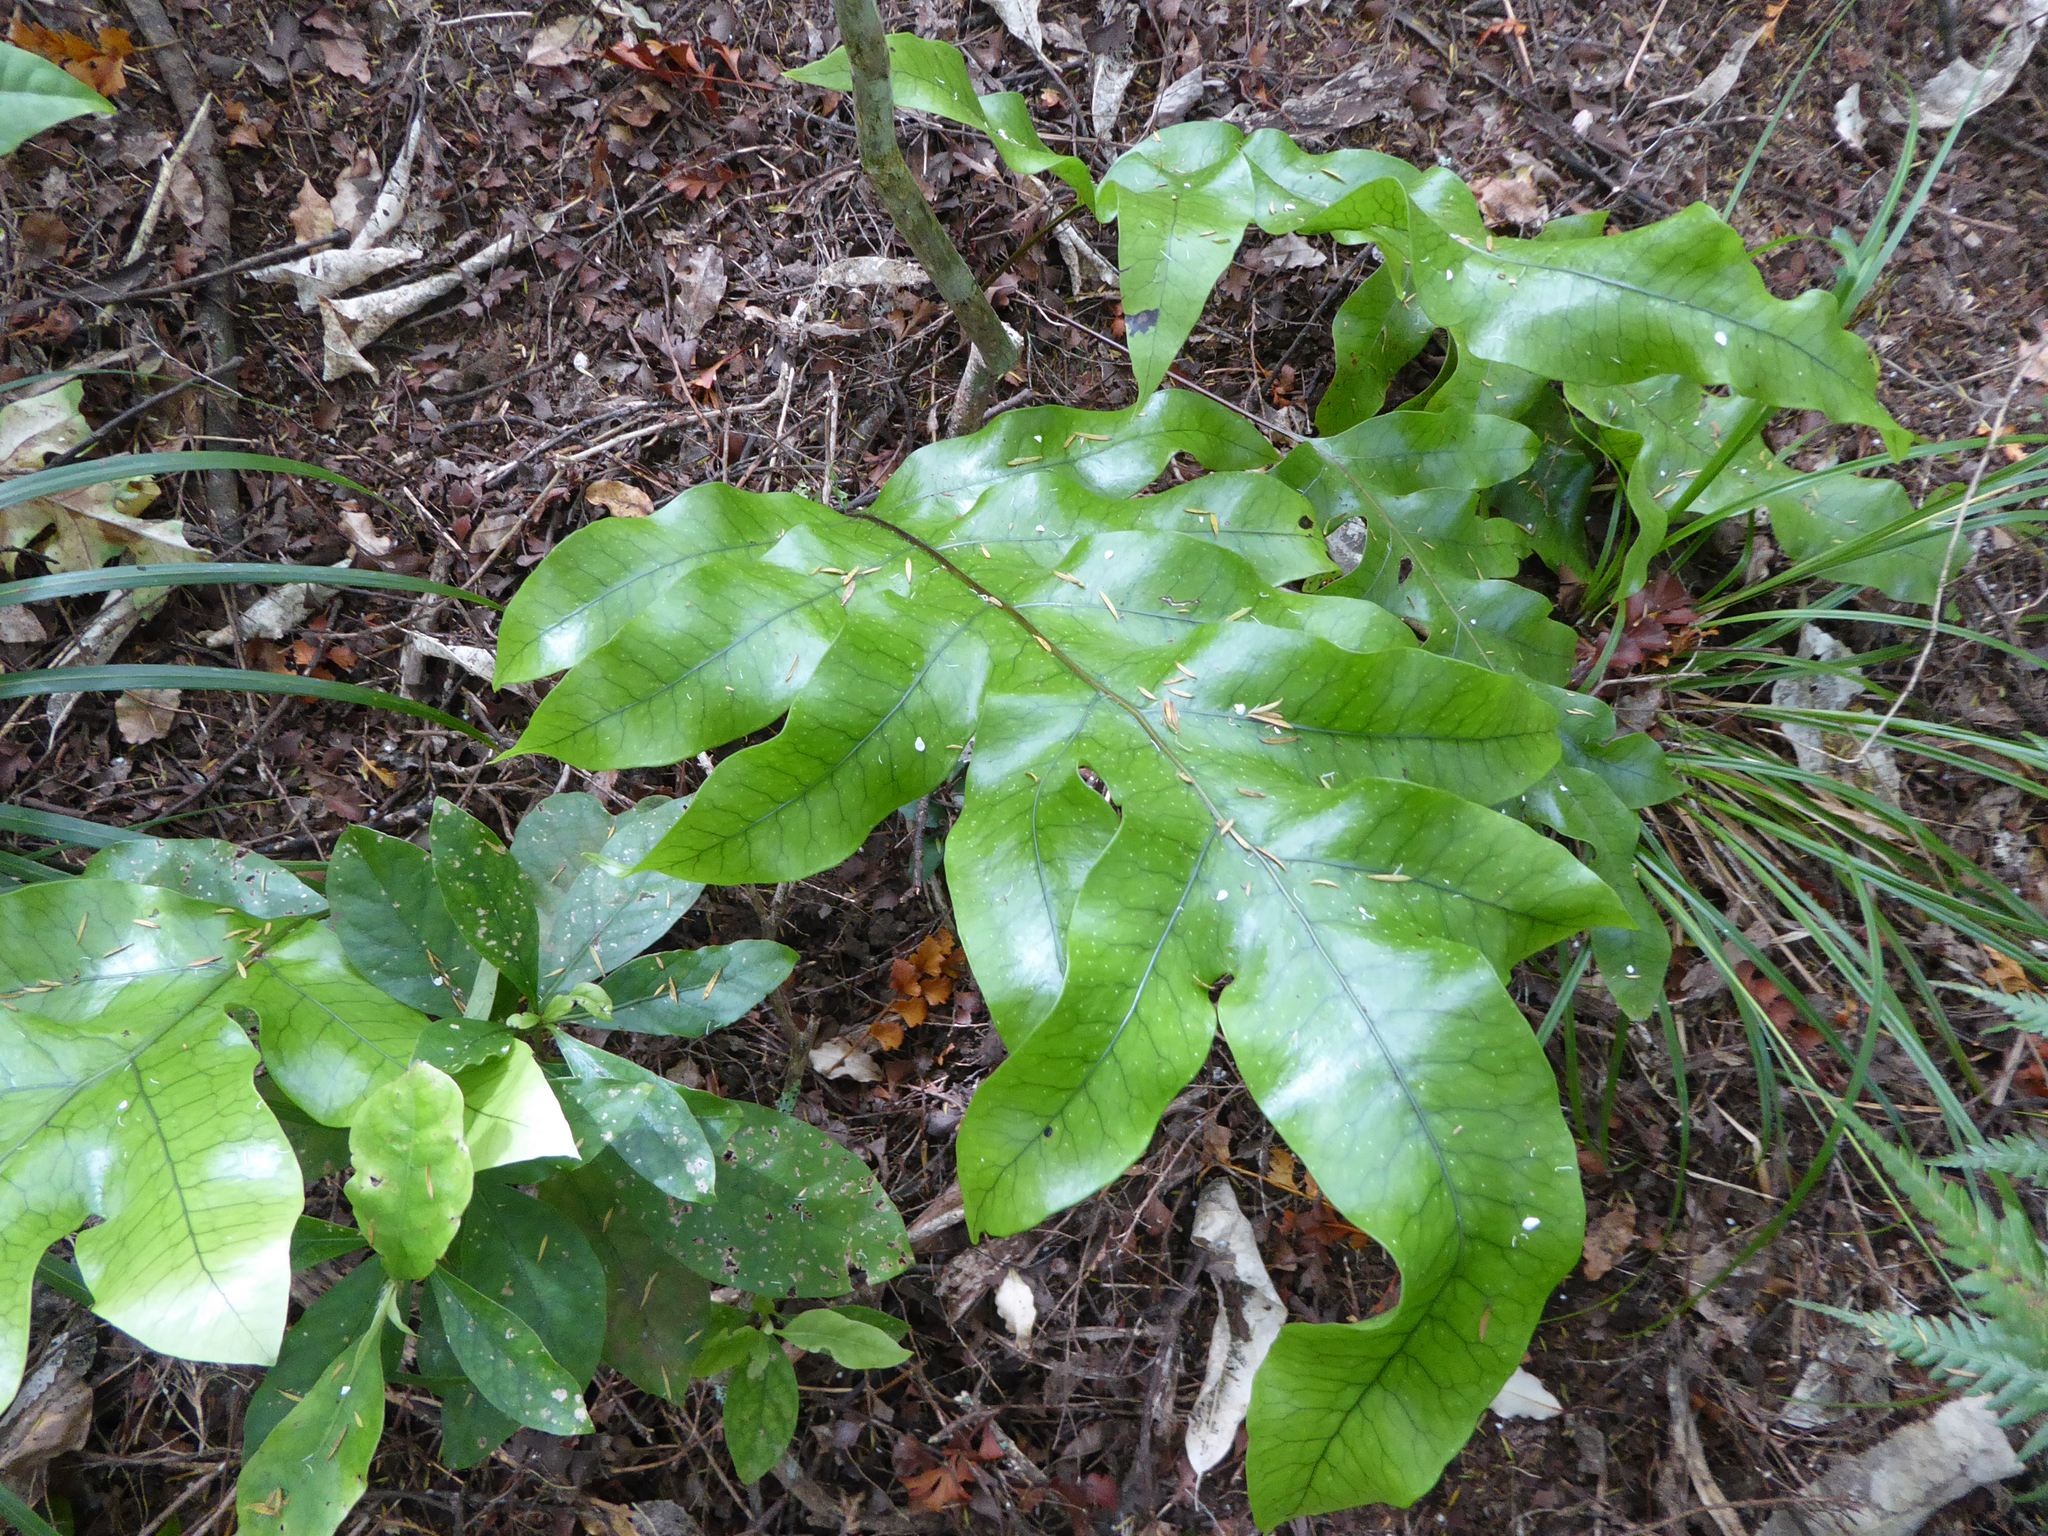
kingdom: Plantae
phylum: Tracheophyta
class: Polypodiopsida
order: Polypodiales
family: Polypodiaceae
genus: Lecanopteris
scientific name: Lecanopteris pustulata
